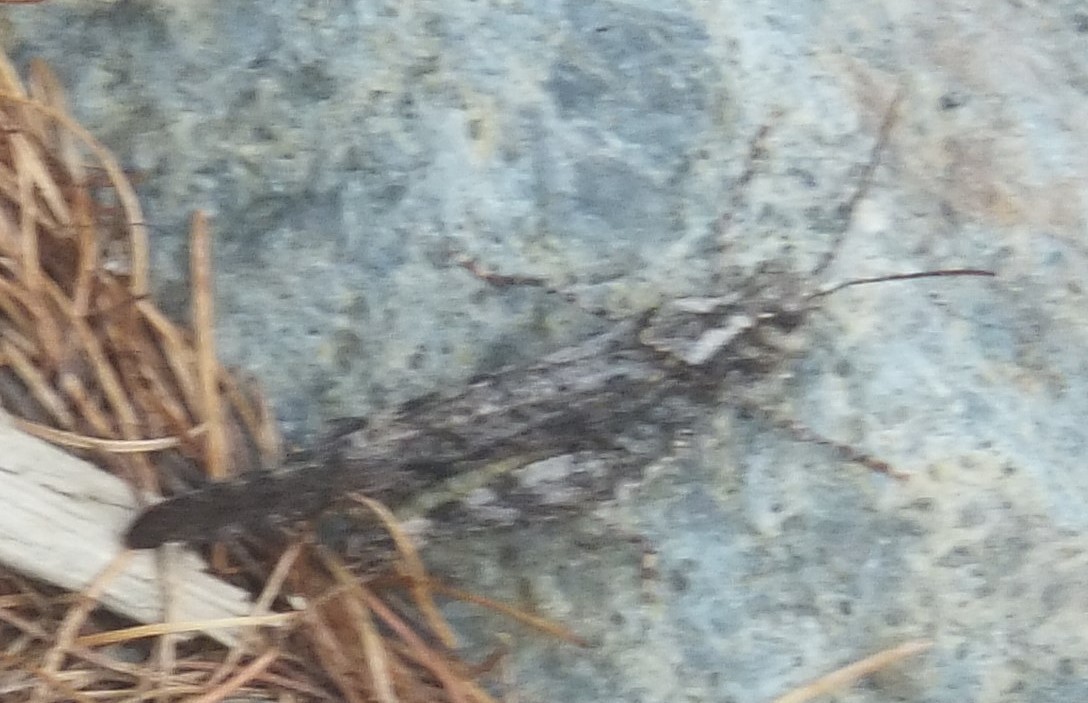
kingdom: Animalia
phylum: Arthropoda
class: Insecta
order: Orthoptera
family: Acrididae
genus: Trimerotropis
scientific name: Trimerotropis verruculata
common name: Crackling forest grasshopper
